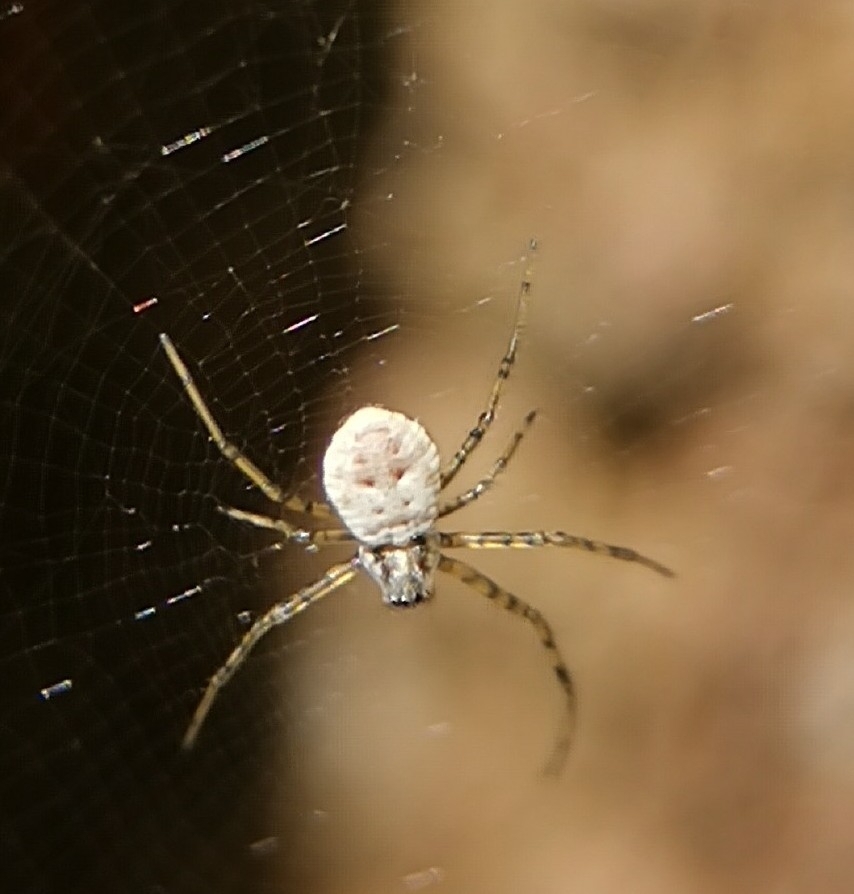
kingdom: Animalia
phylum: Arthropoda
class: Arachnida
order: Araneae
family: Araneidae
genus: Herennia
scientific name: Herennia multipuncta
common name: Spotted coin spider
